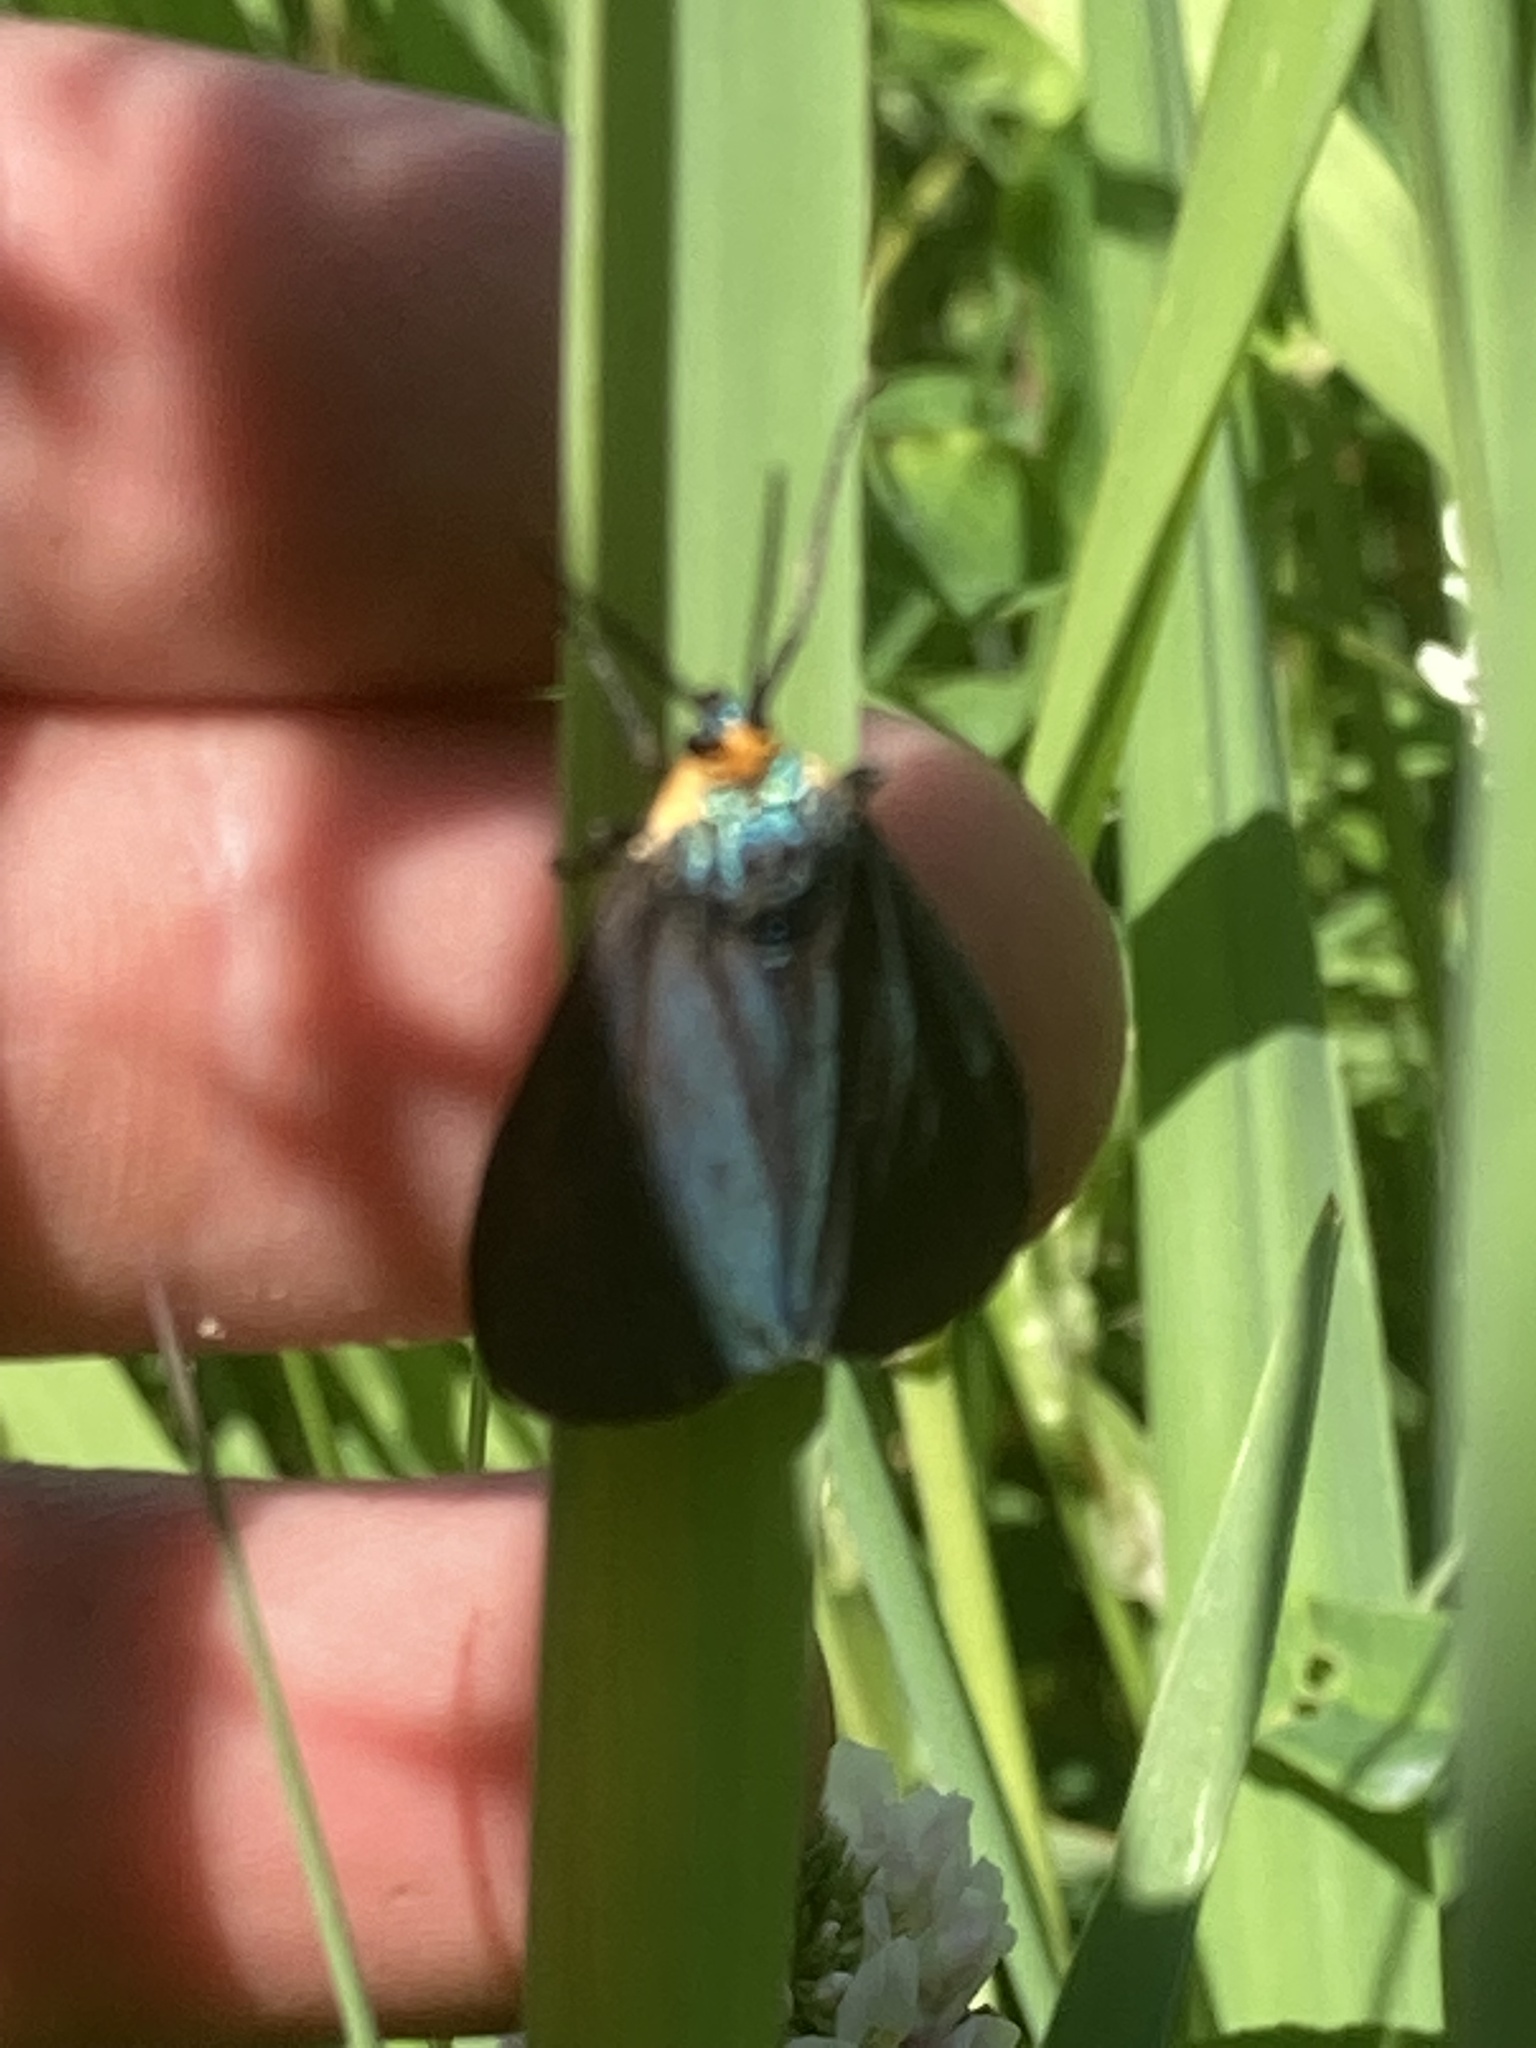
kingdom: Animalia
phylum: Arthropoda
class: Insecta
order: Lepidoptera
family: Erebidae
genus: Ctenucha
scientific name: Ctenucha virginica
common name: Virginia ctenucha moth
